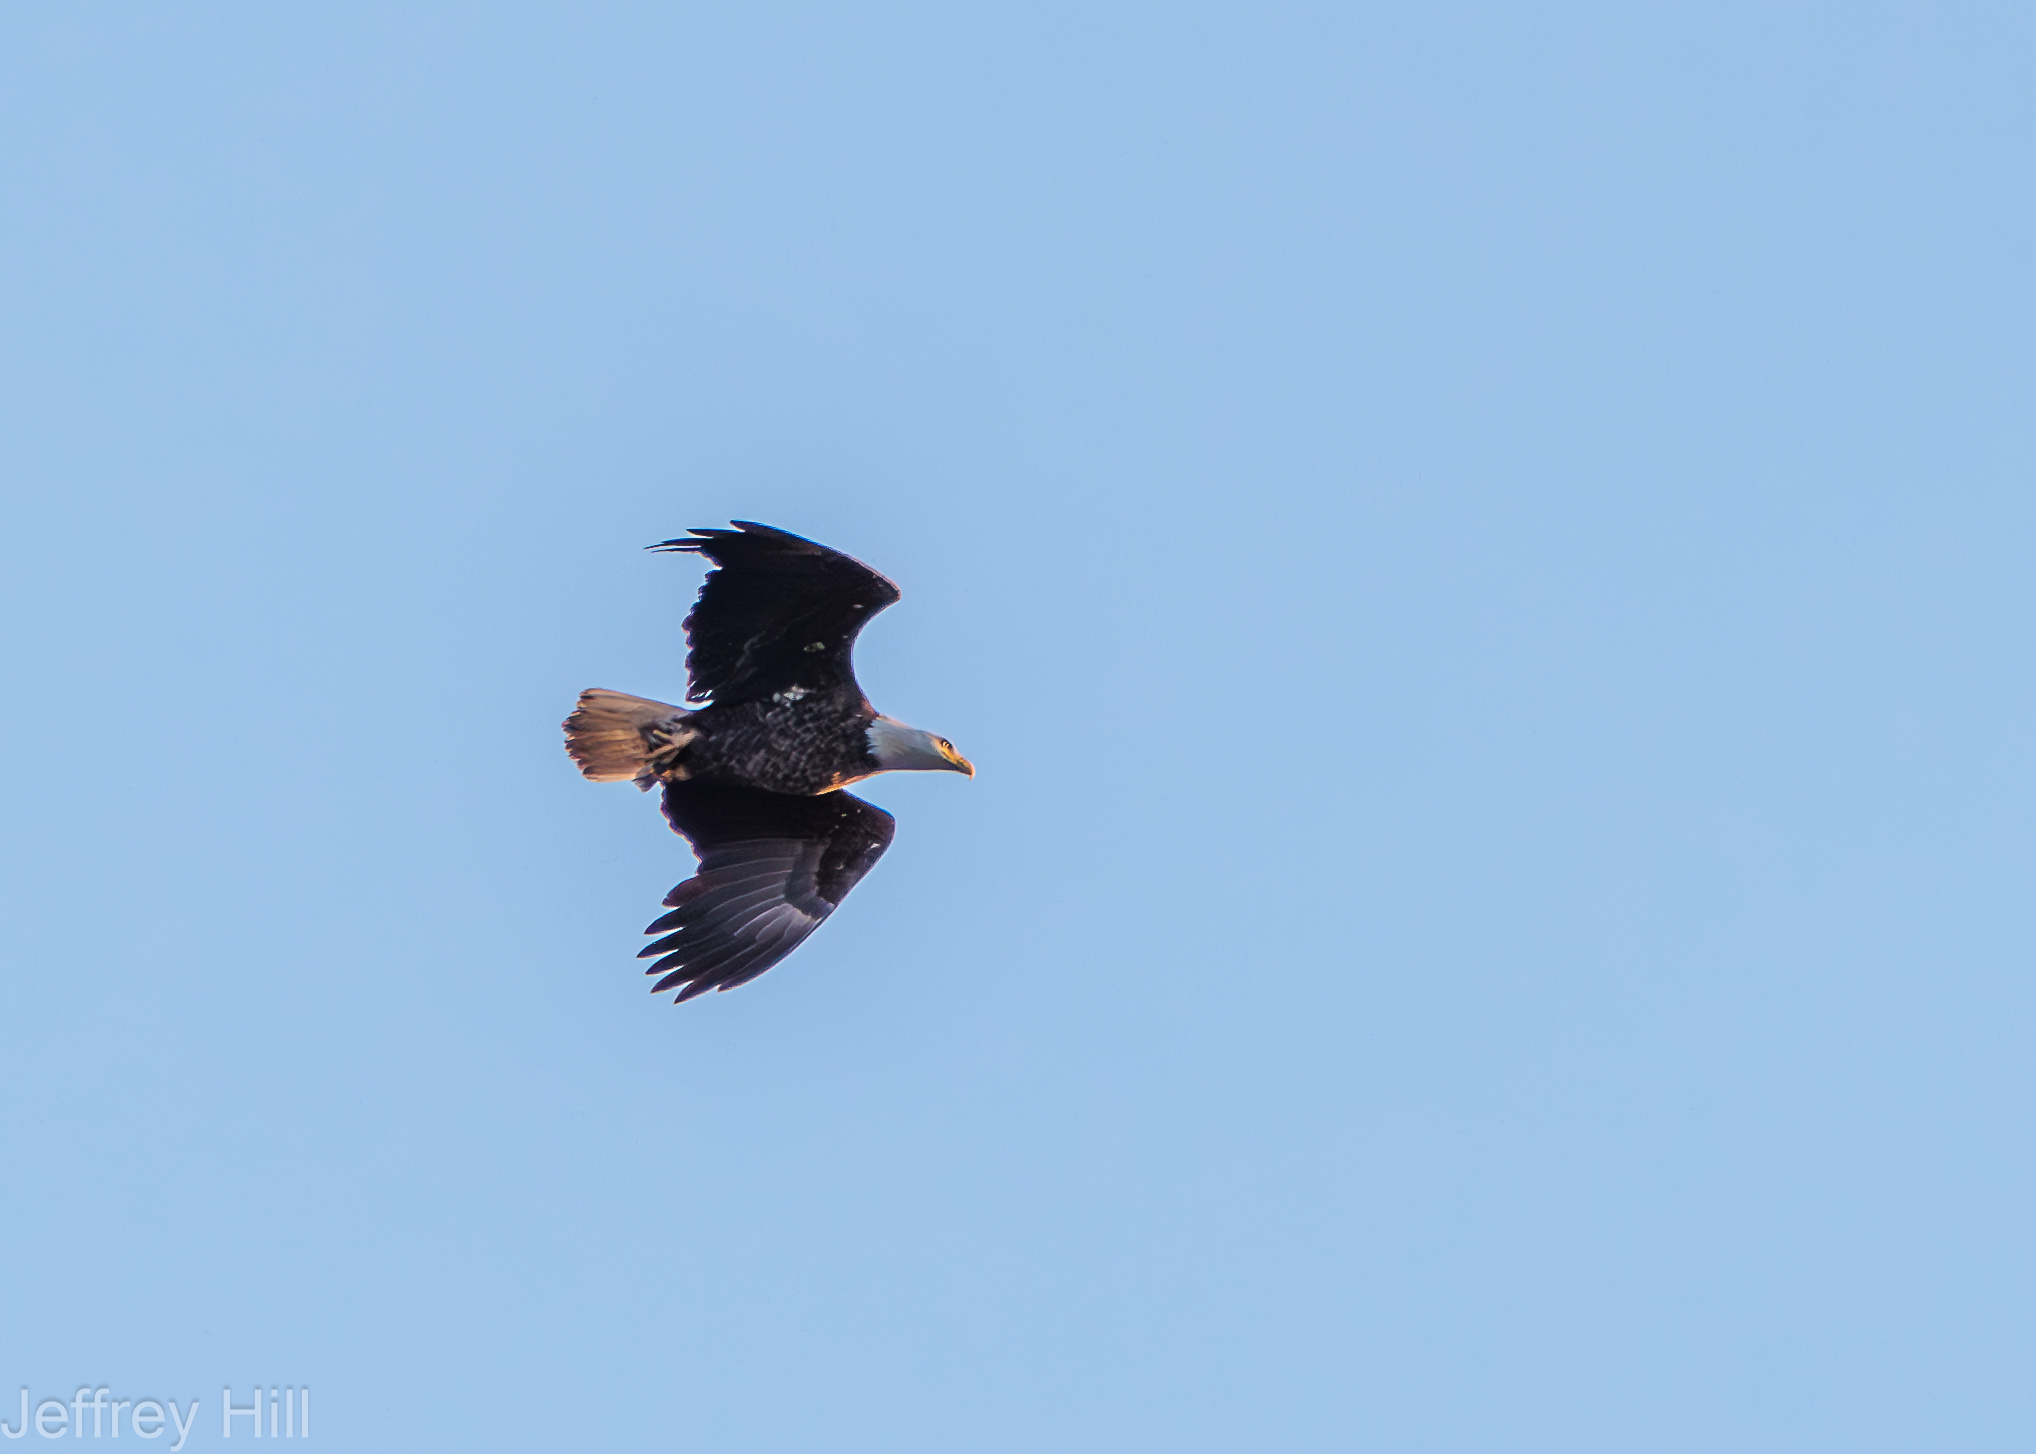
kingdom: Animalia
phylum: Chordata
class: Aves
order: Accipitriformes
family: Accipitridae
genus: Haliaeetus
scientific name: Haliaeetus leucocephalus
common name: Bald eagle
